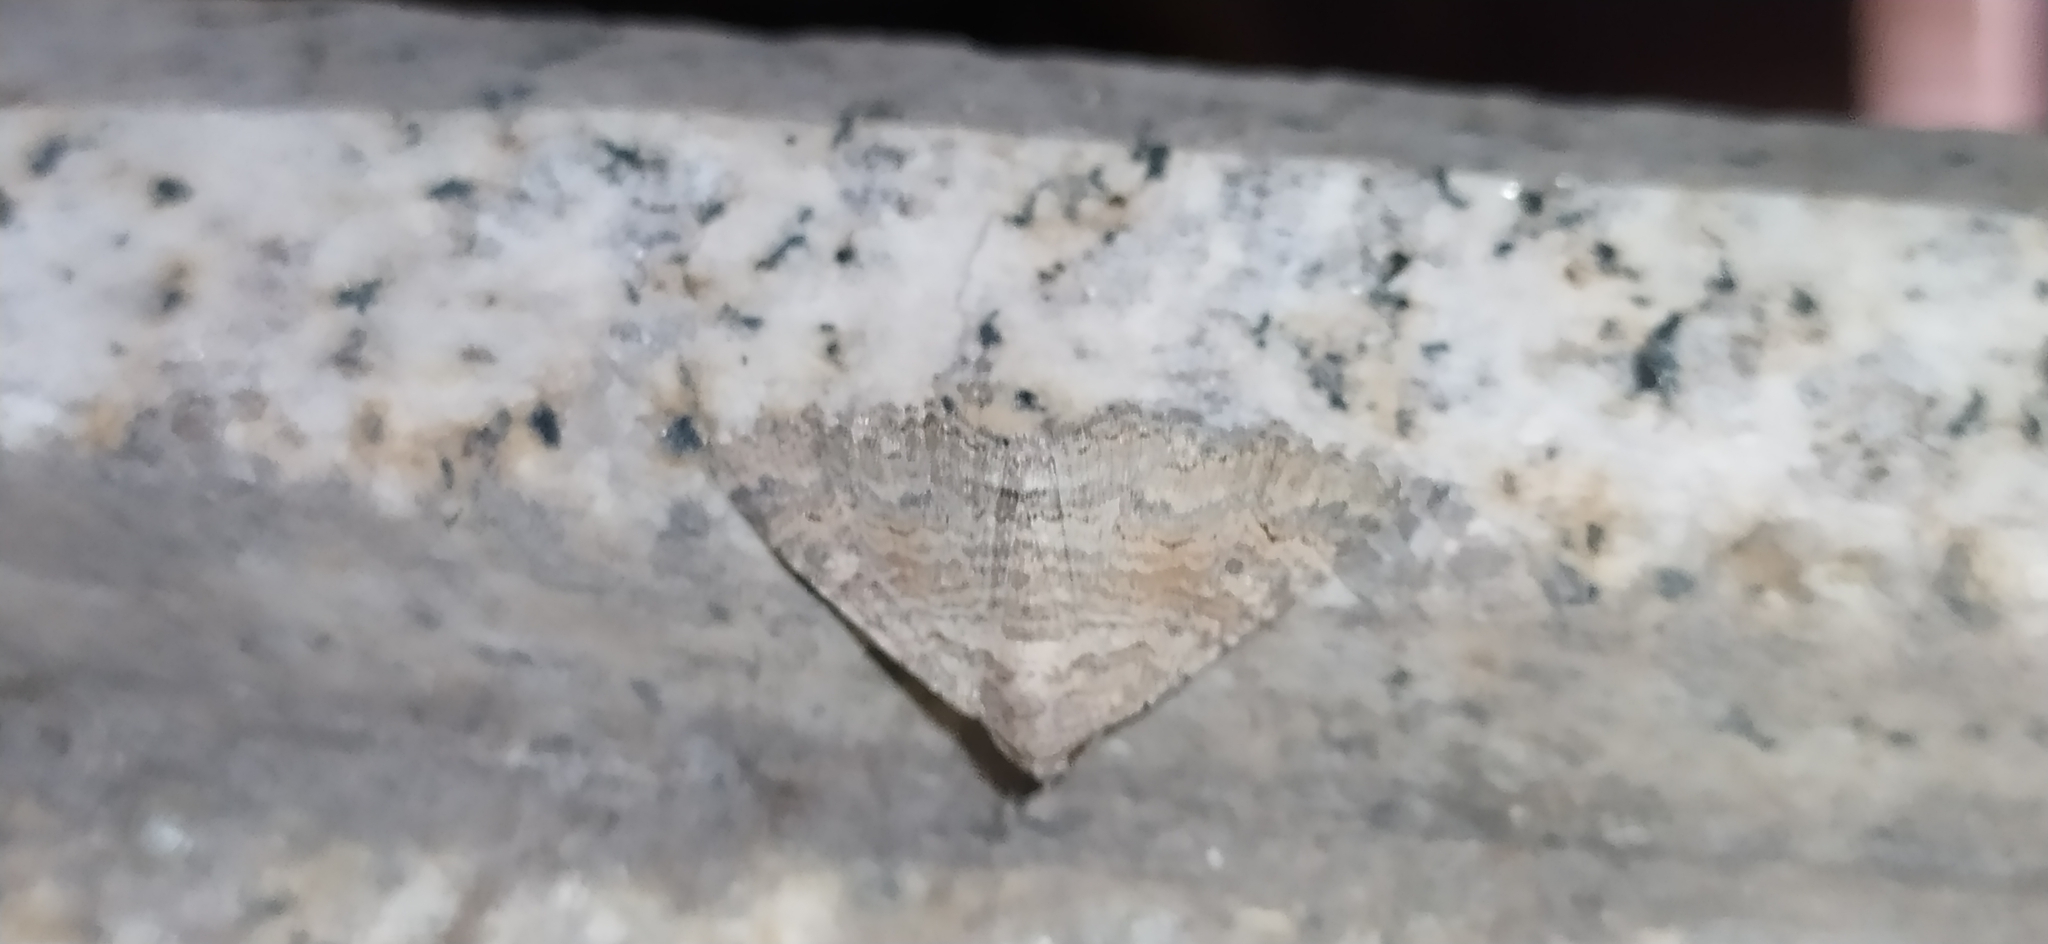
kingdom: Animalia
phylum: Arthropoda
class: Insecta
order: Lepidoptera
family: Erebidae
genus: Pericyma
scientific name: Pericyma albidentaria
